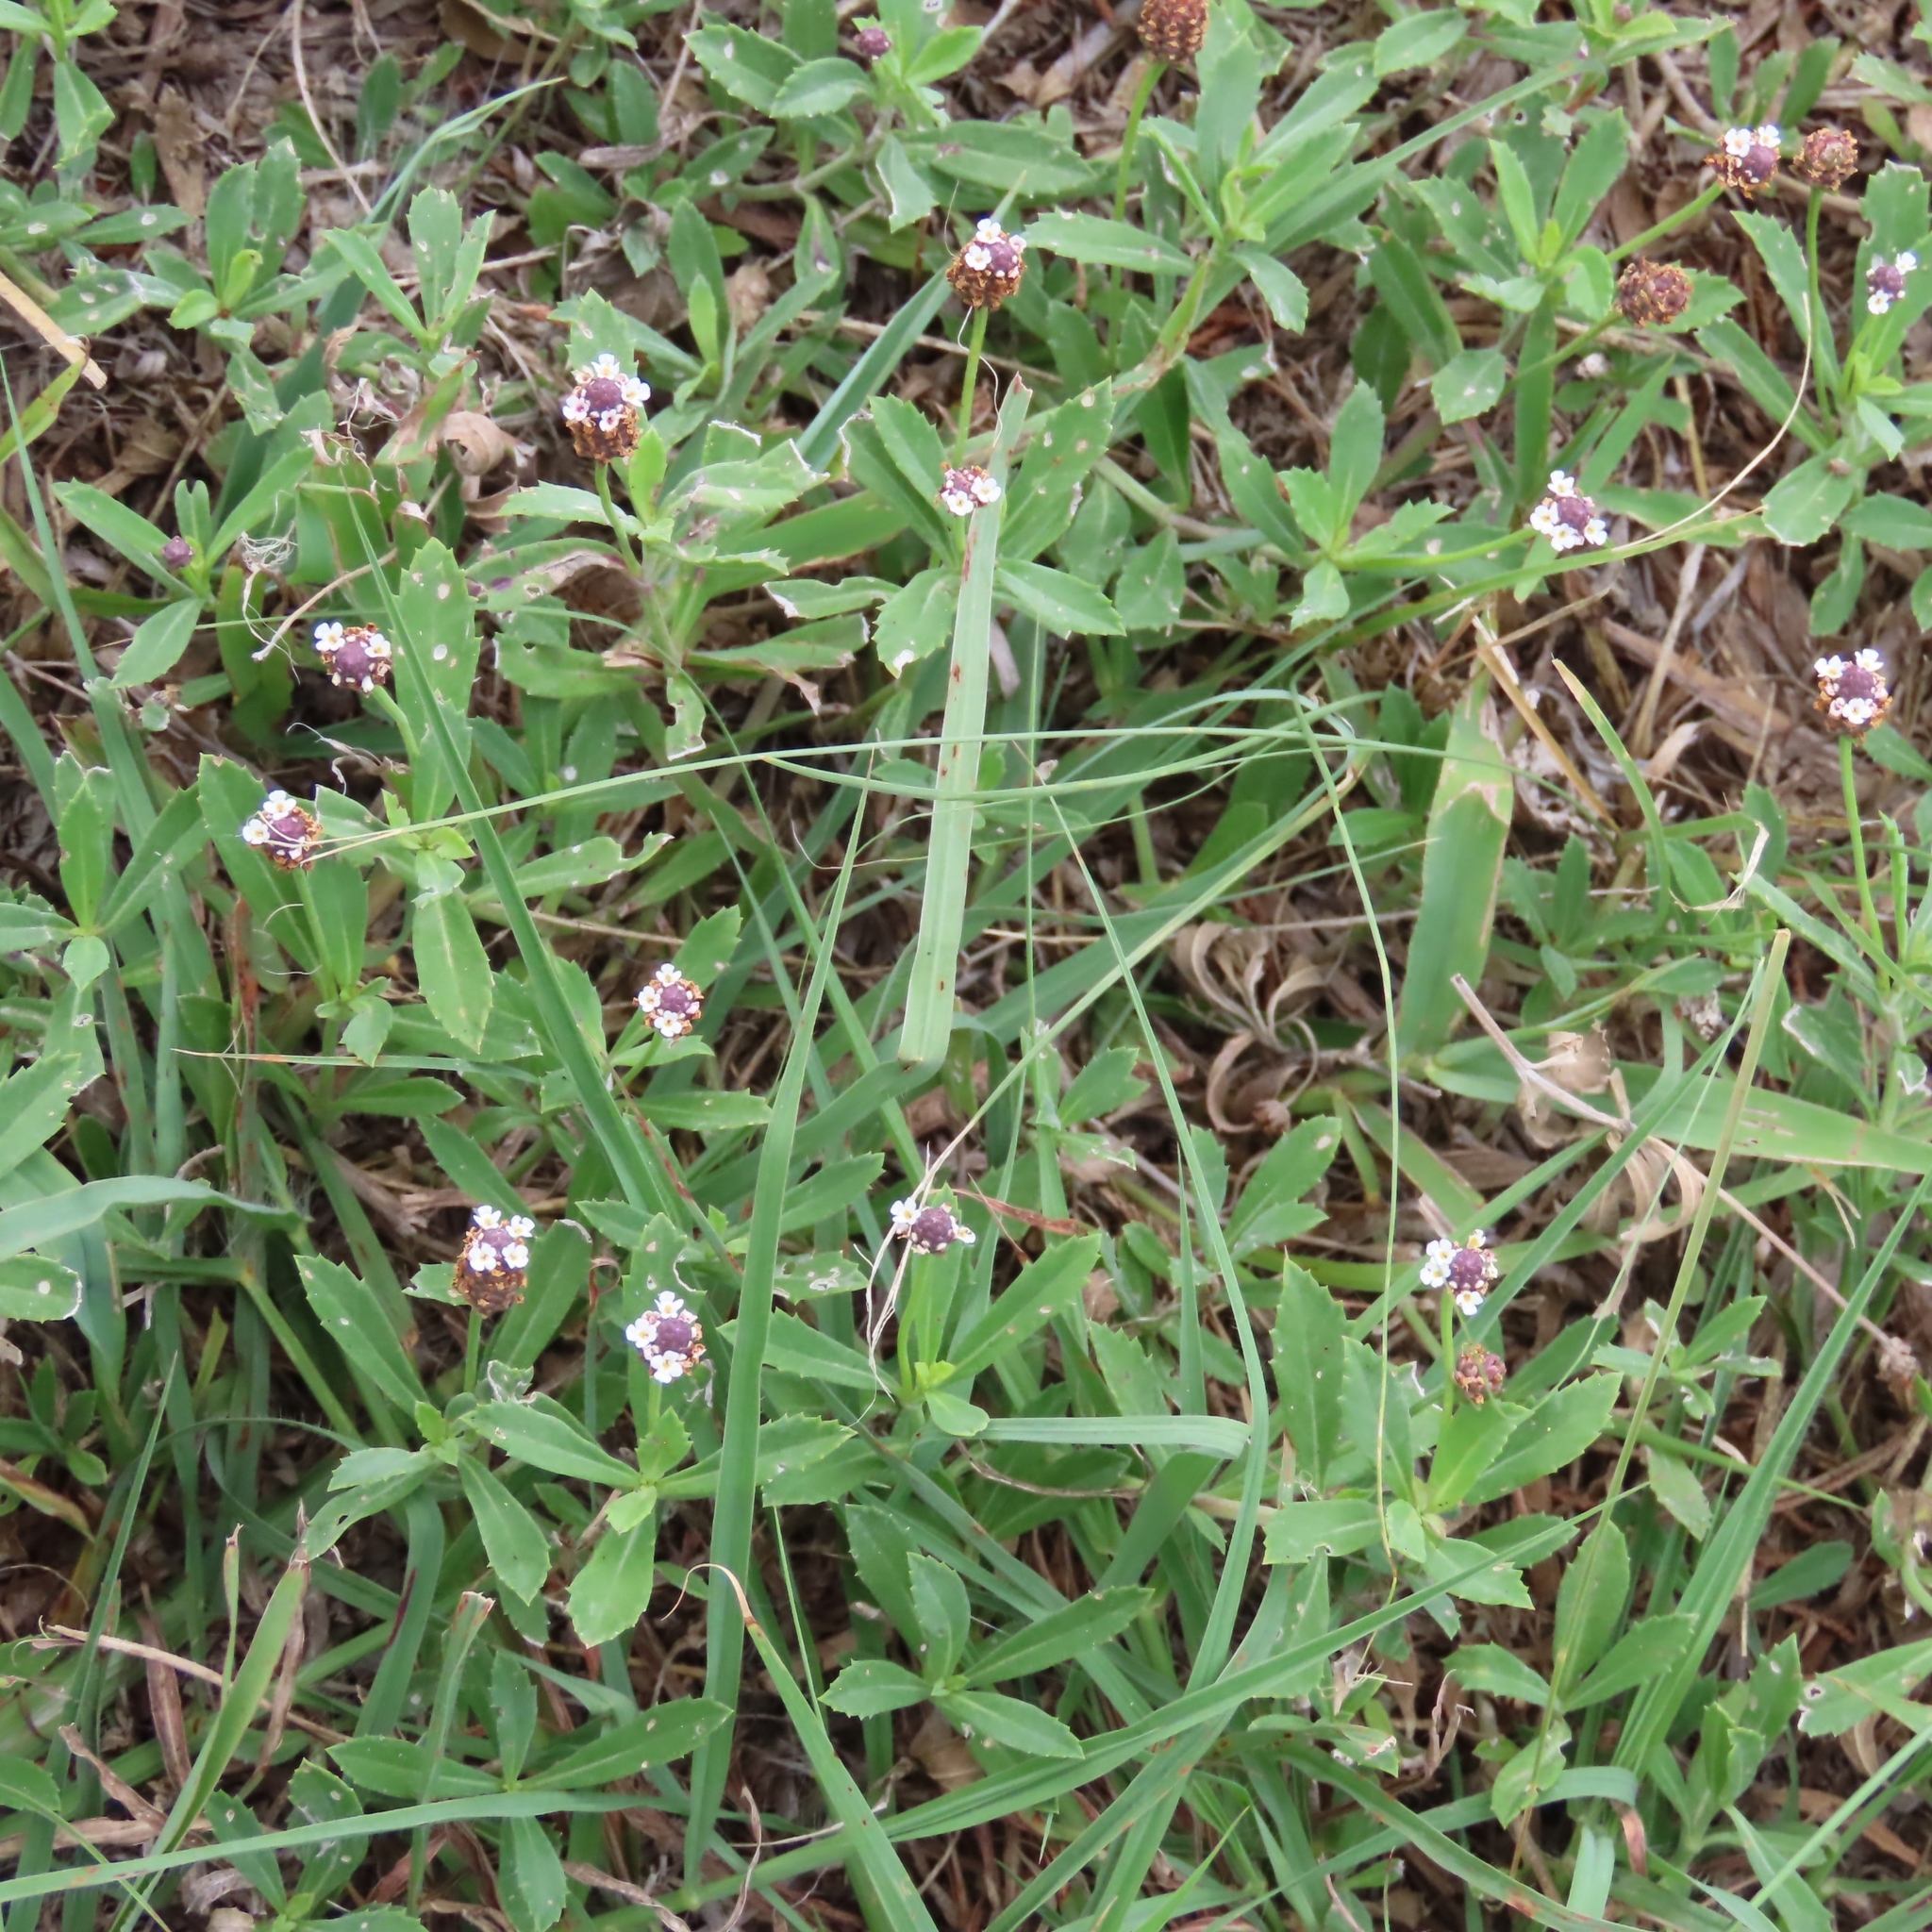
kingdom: Plantae
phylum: Tracheophyta
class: Magnoliopsida
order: Lamiales
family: Verbenaceae
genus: Phyla
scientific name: Phyla nodiflora
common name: Frogfruit
